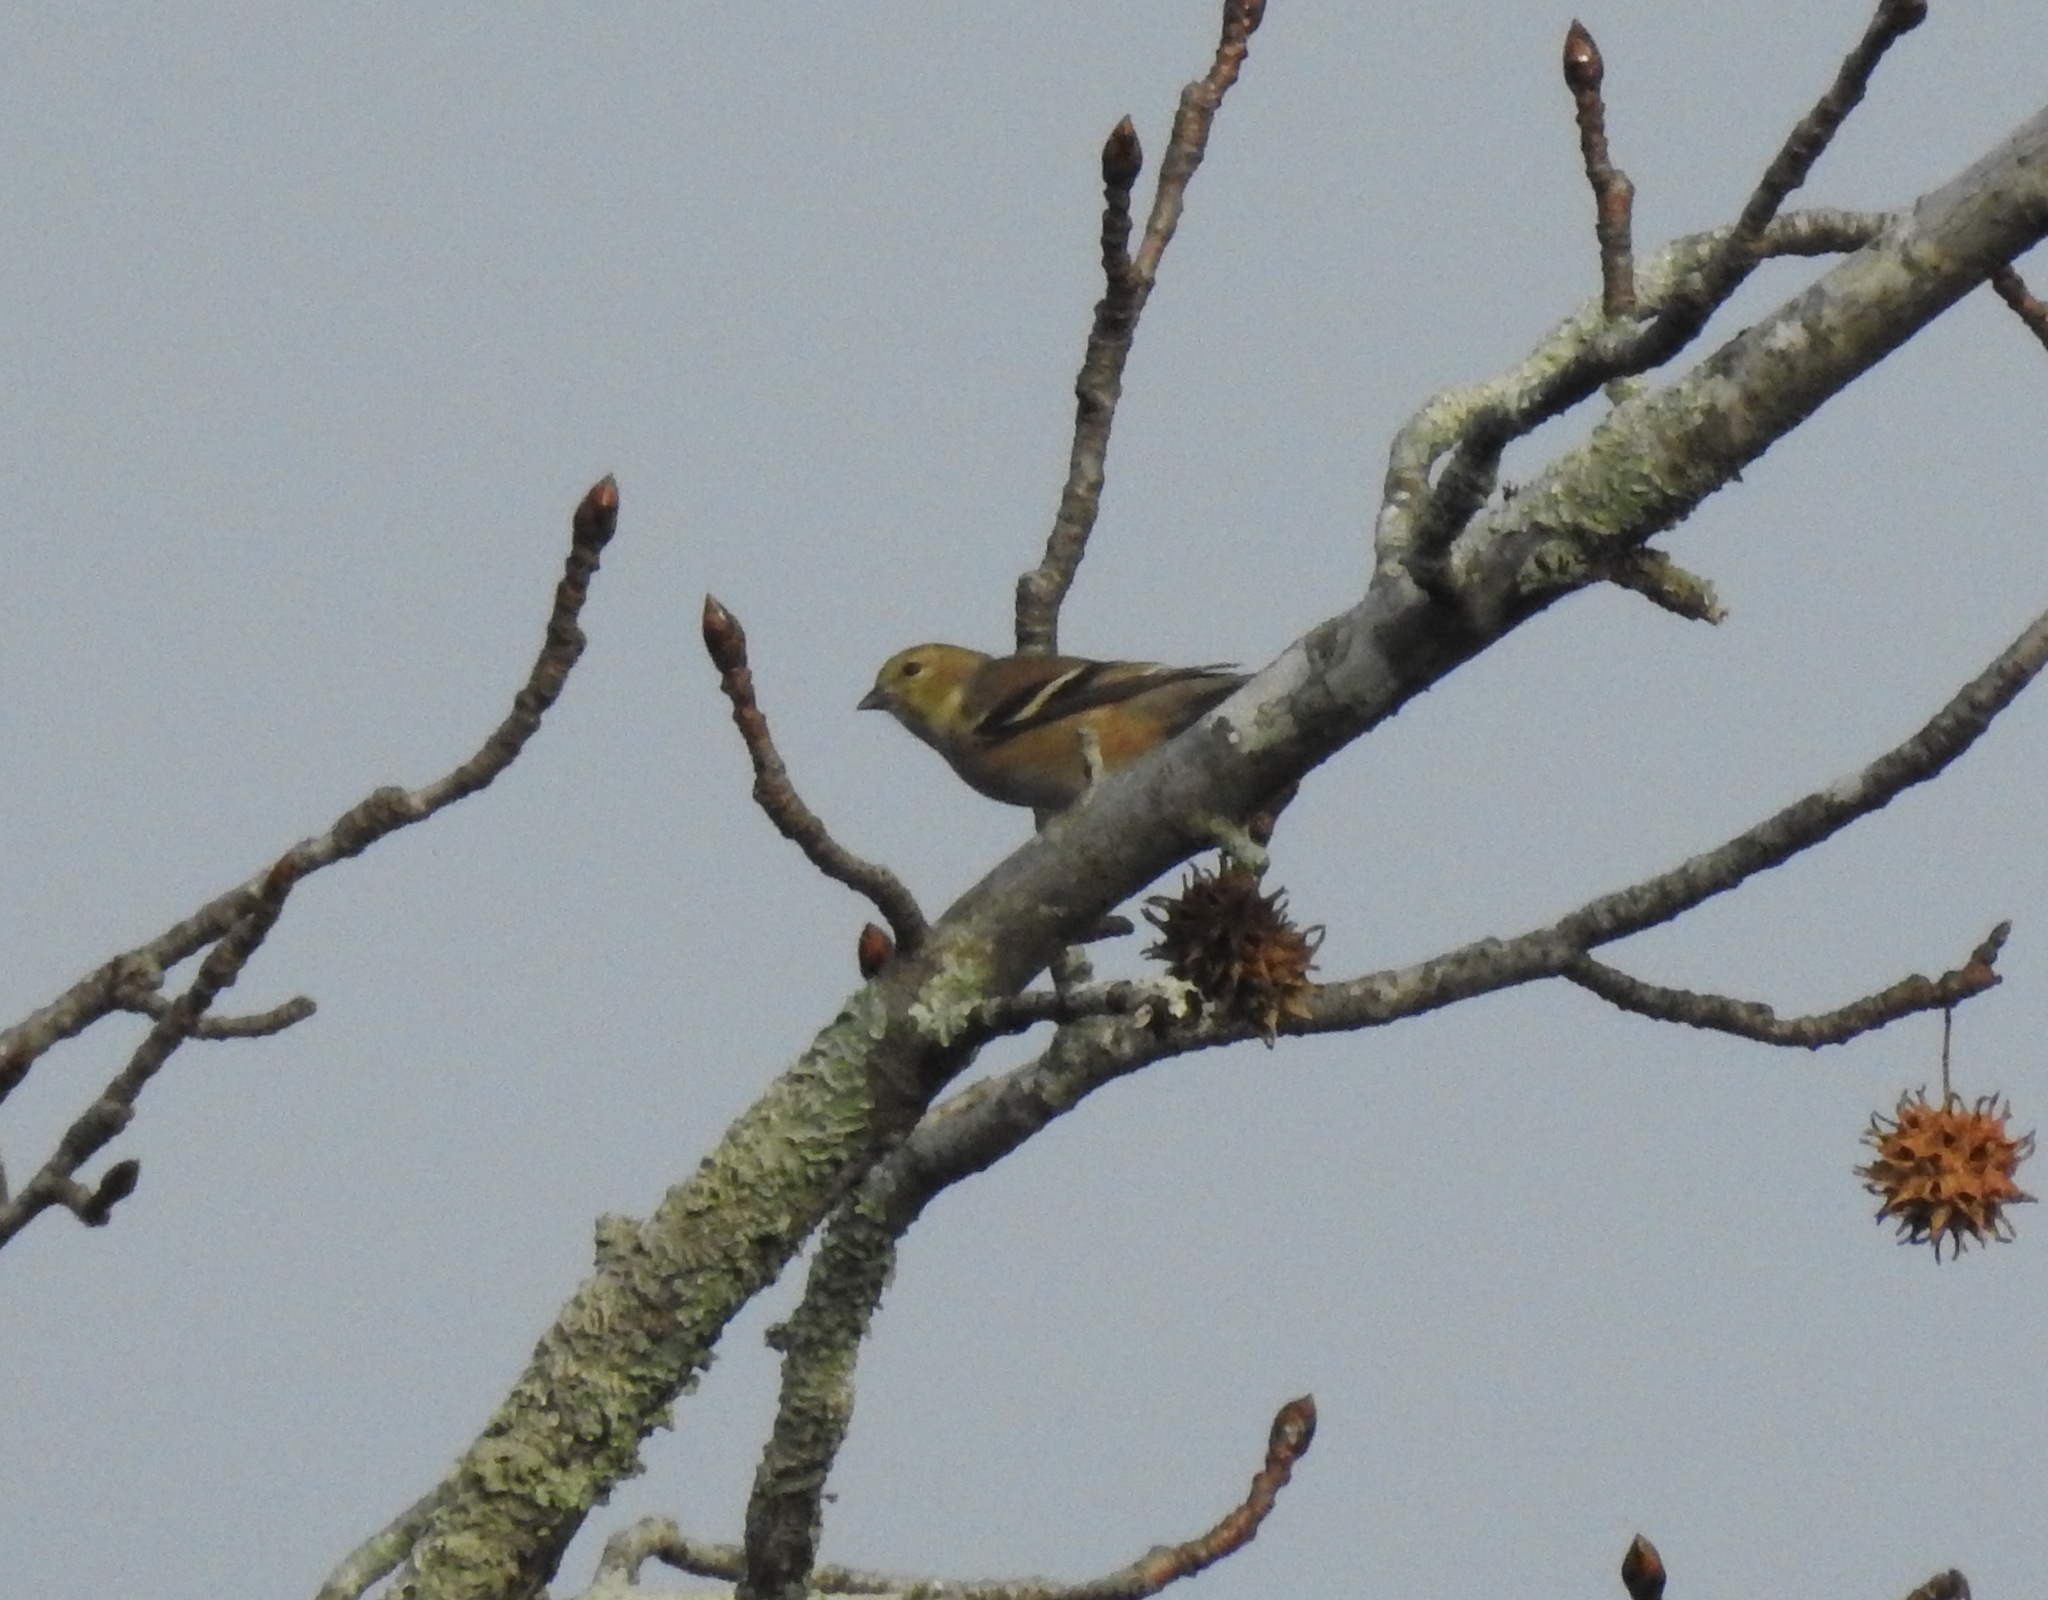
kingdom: Animalia
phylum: Chordata
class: Aves
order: Passeriformes
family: Fringillidae
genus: Spinus
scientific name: Spinus tristis
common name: American goldfinch
